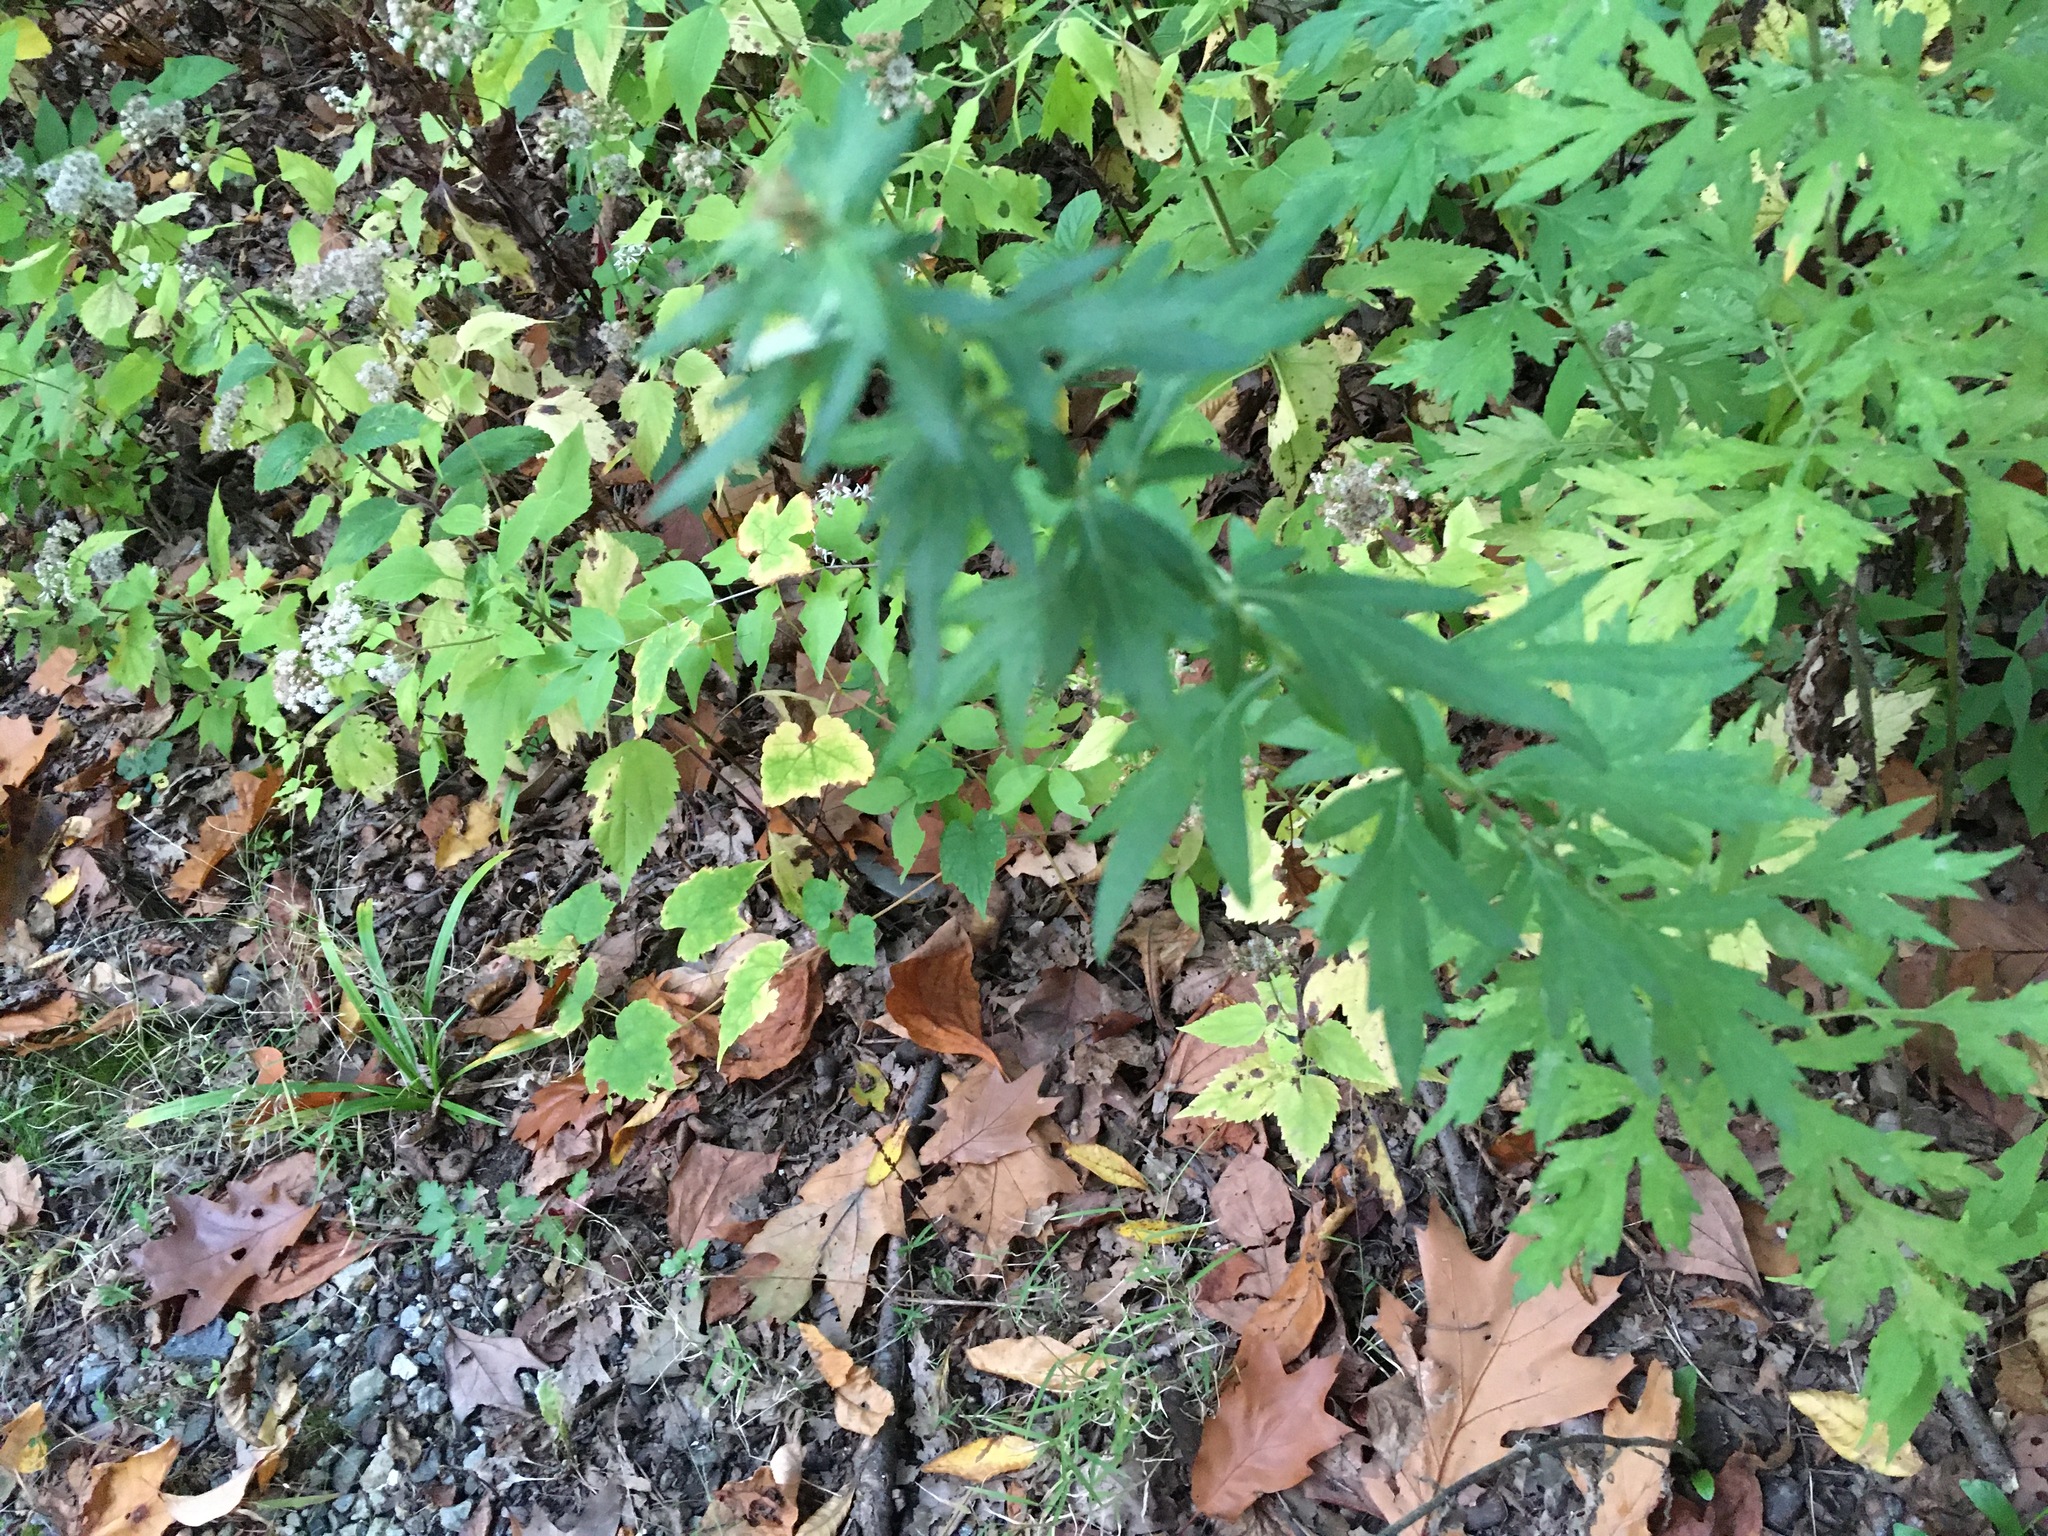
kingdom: Plantae
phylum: Tracheophyta
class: Magnoliopsida
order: Asterales
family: Asteraceae
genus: Artemisia
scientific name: Artemisia vulgaris
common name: Mugwort
